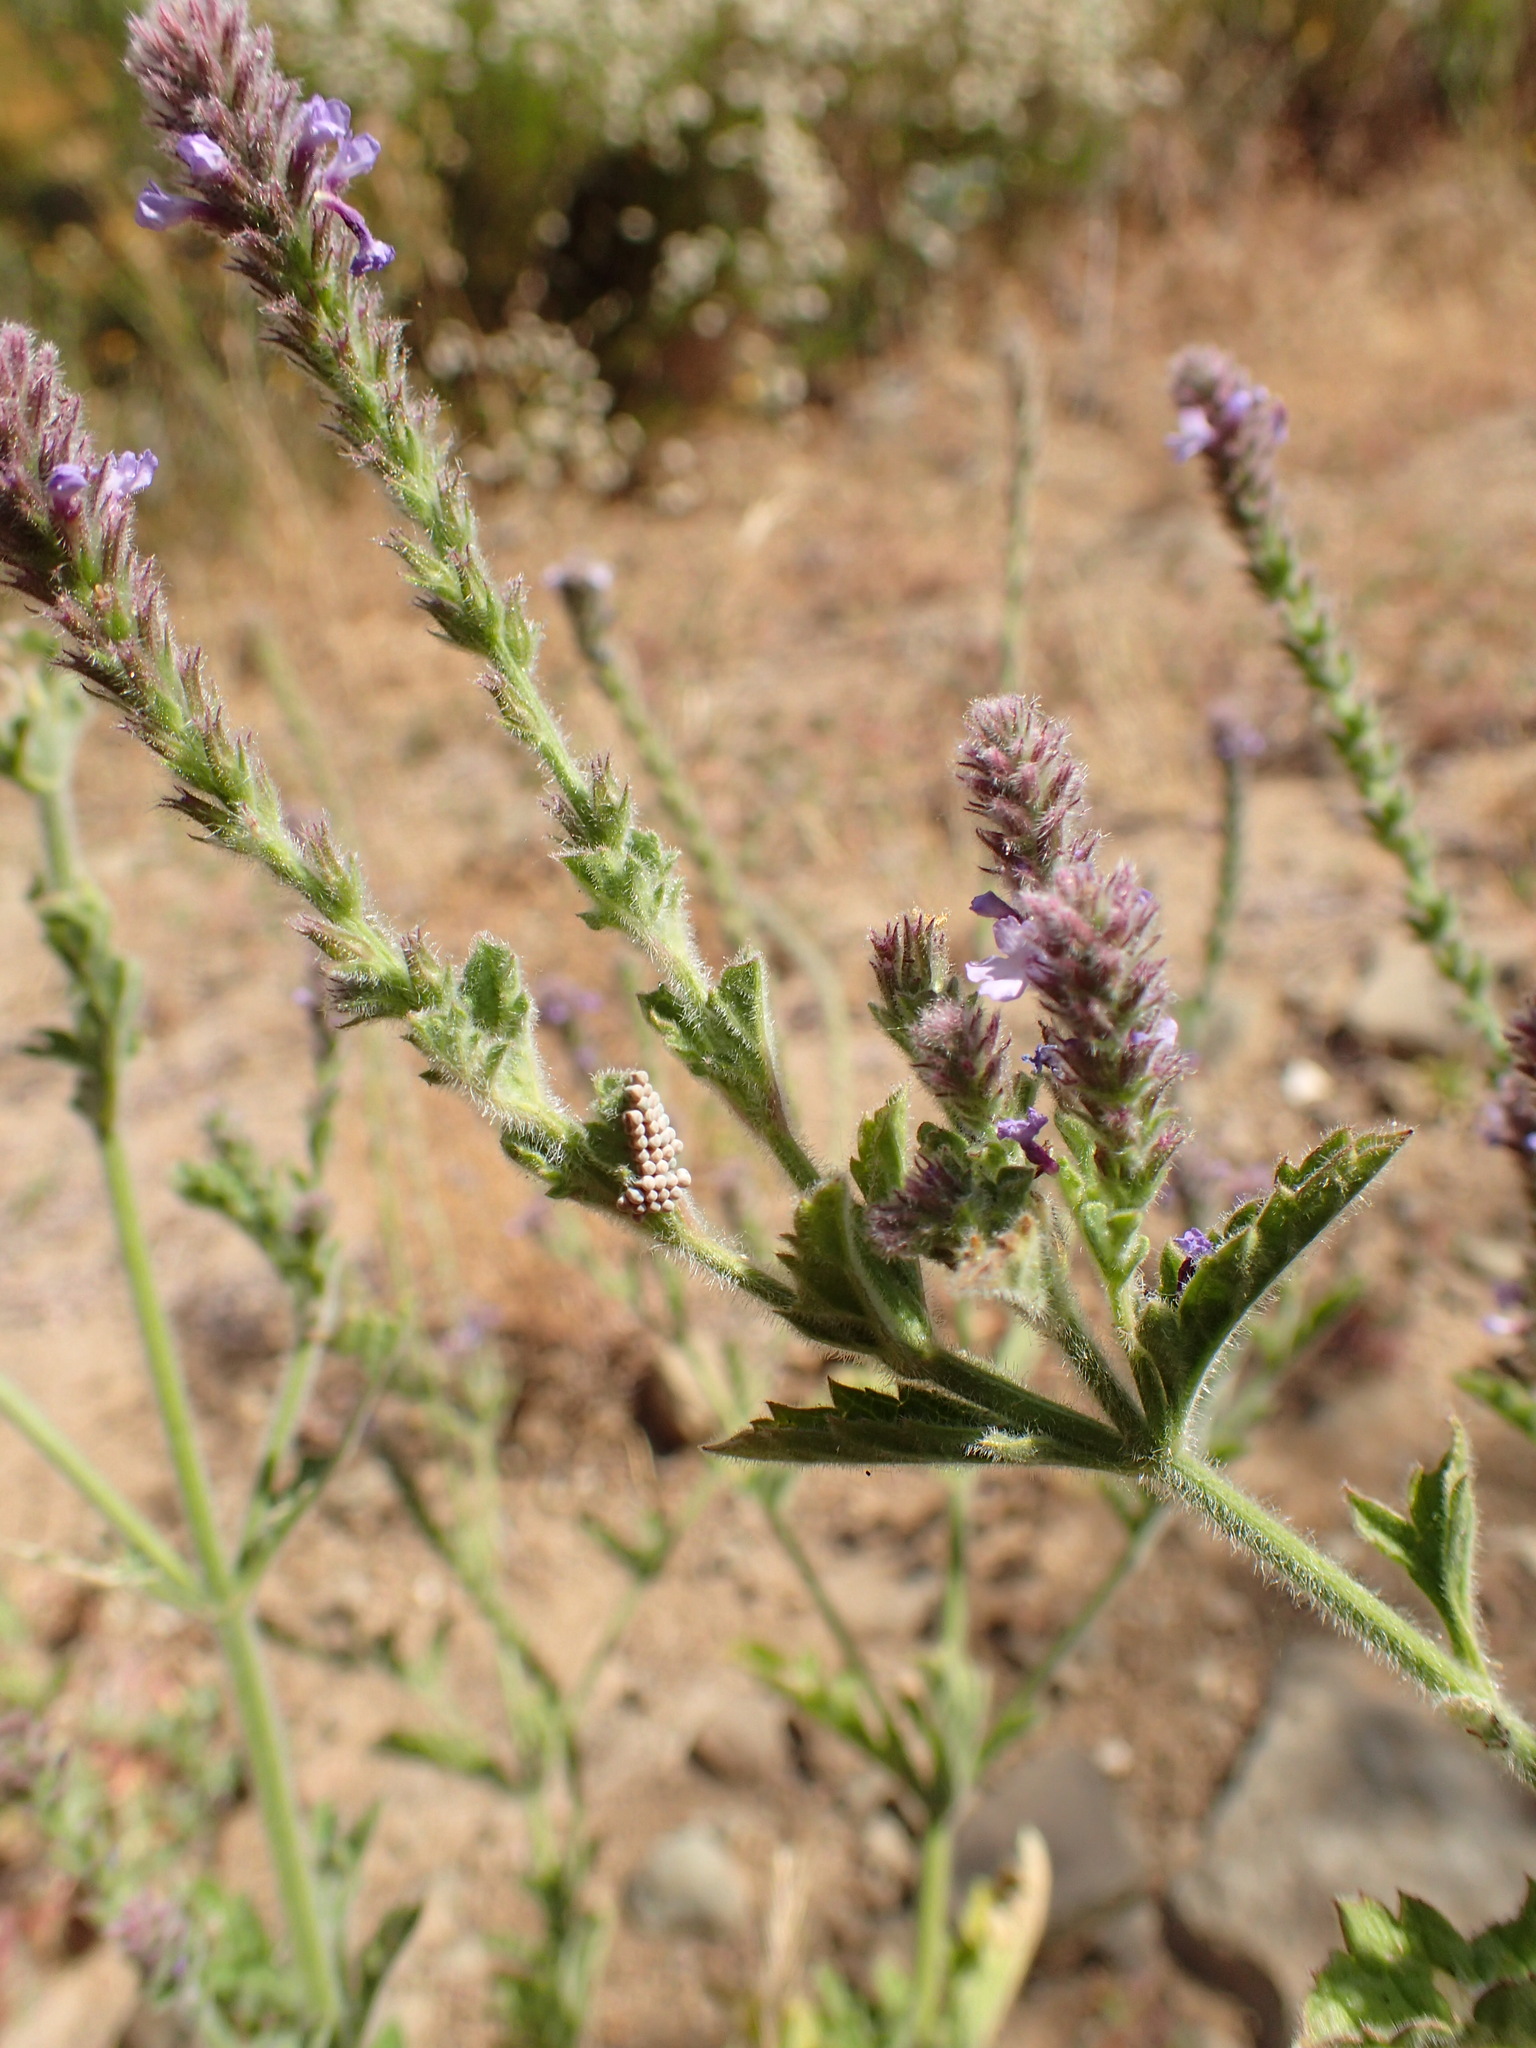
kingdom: Plantae
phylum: Tracheophyta
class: Magnoliopsida
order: Lamiales
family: Verbenaceae
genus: Verbena
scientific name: Verbena lasiostachys
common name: Vervain
